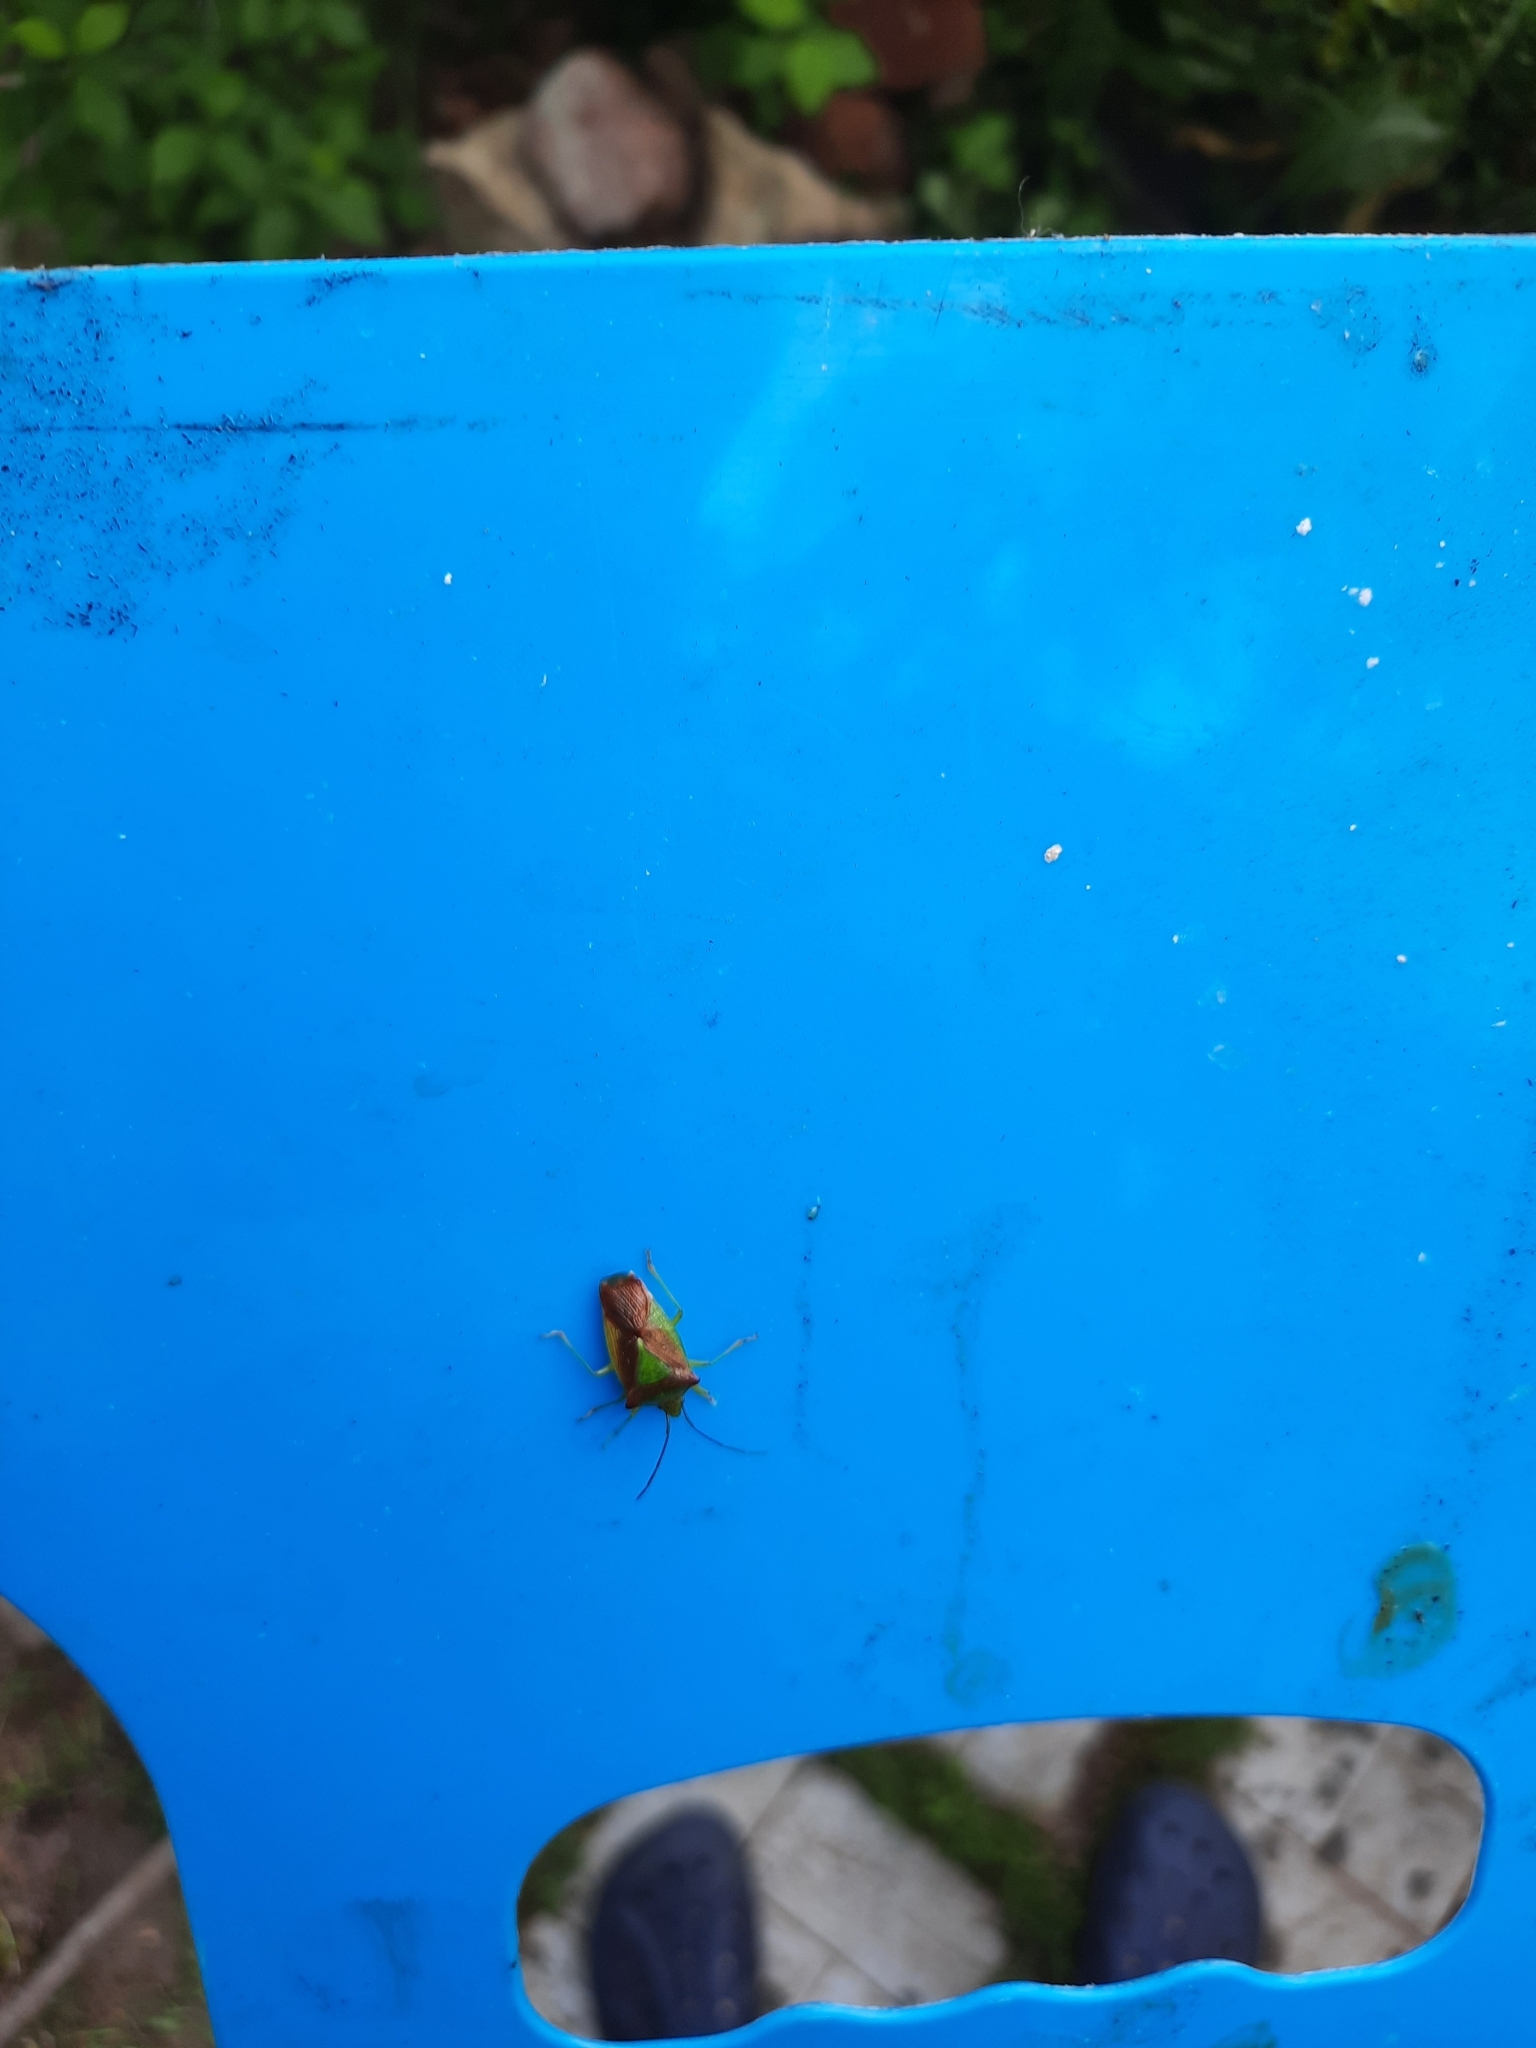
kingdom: Animalia
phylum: Arthropoda
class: Insecta
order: Hemiptera
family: Acanthosomatidae
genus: Acanthosoma
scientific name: Acanthosoma haemorrhoidale
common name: Hawthorn shieldbug
